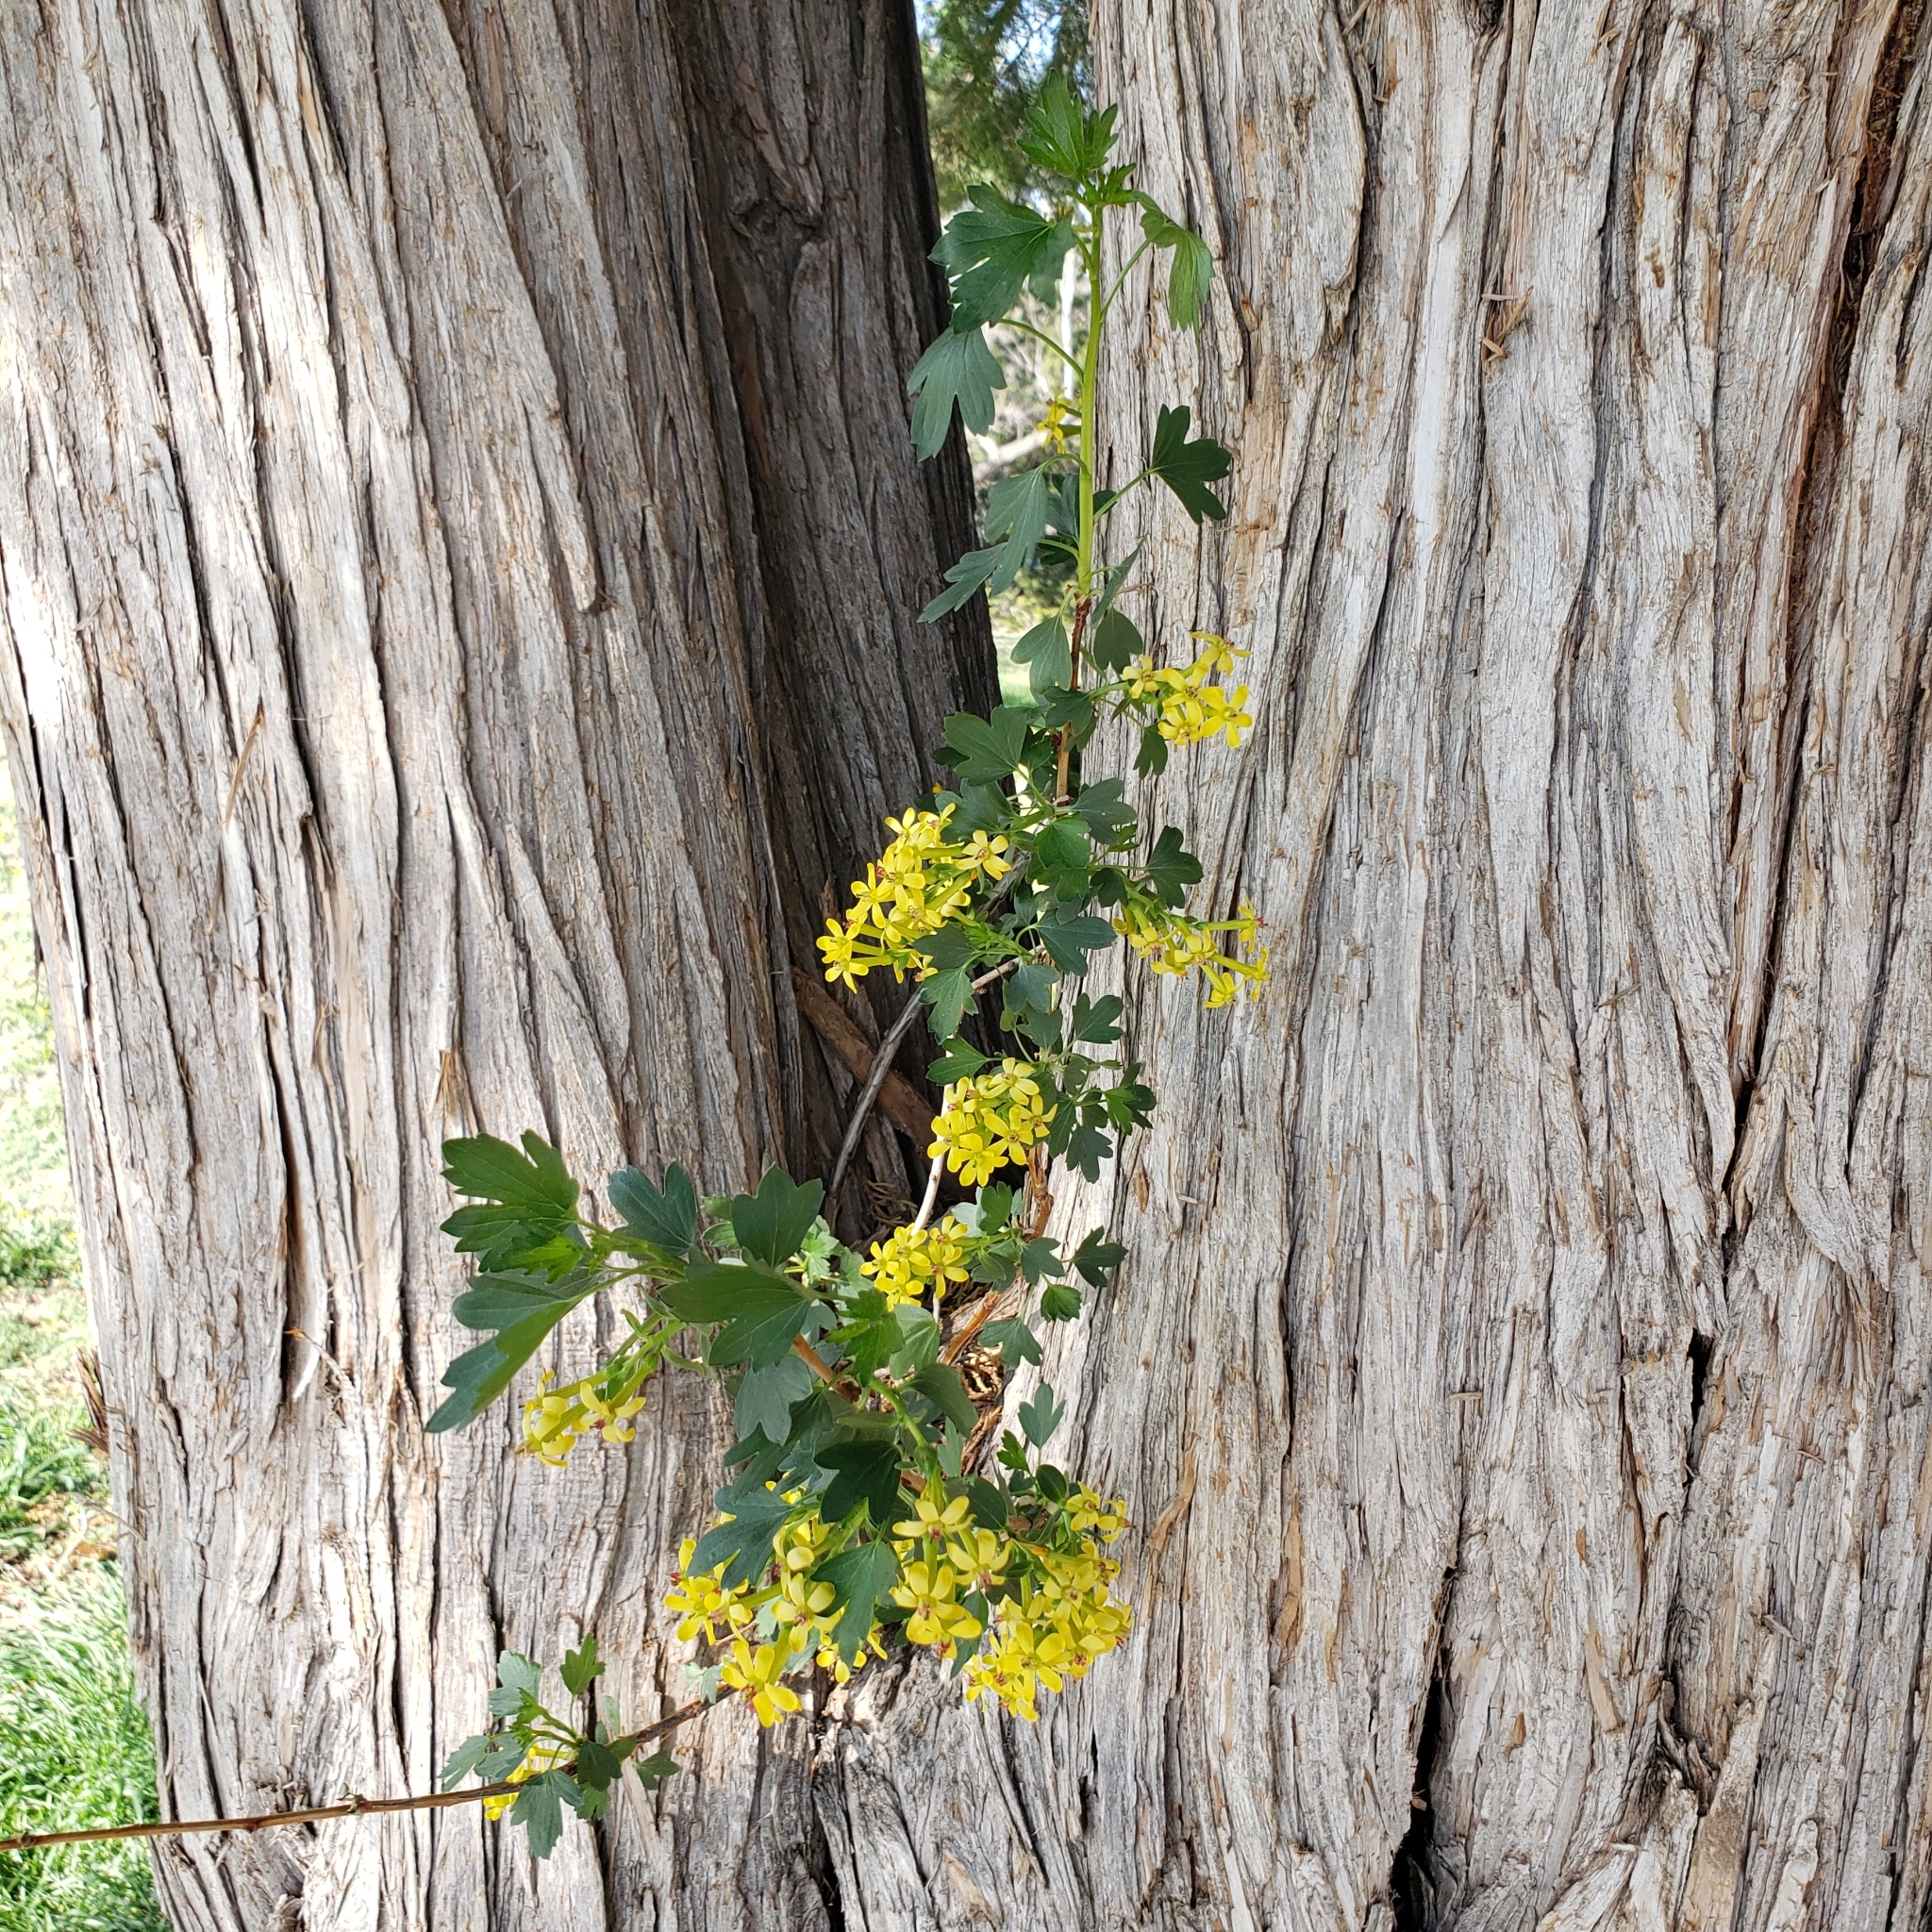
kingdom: Plantae
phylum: Tracheophyta
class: Magnoliopsida
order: Saxifragales
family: Grossulariaceae
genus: Ribes
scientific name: Ribes aureum
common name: Golden currant
